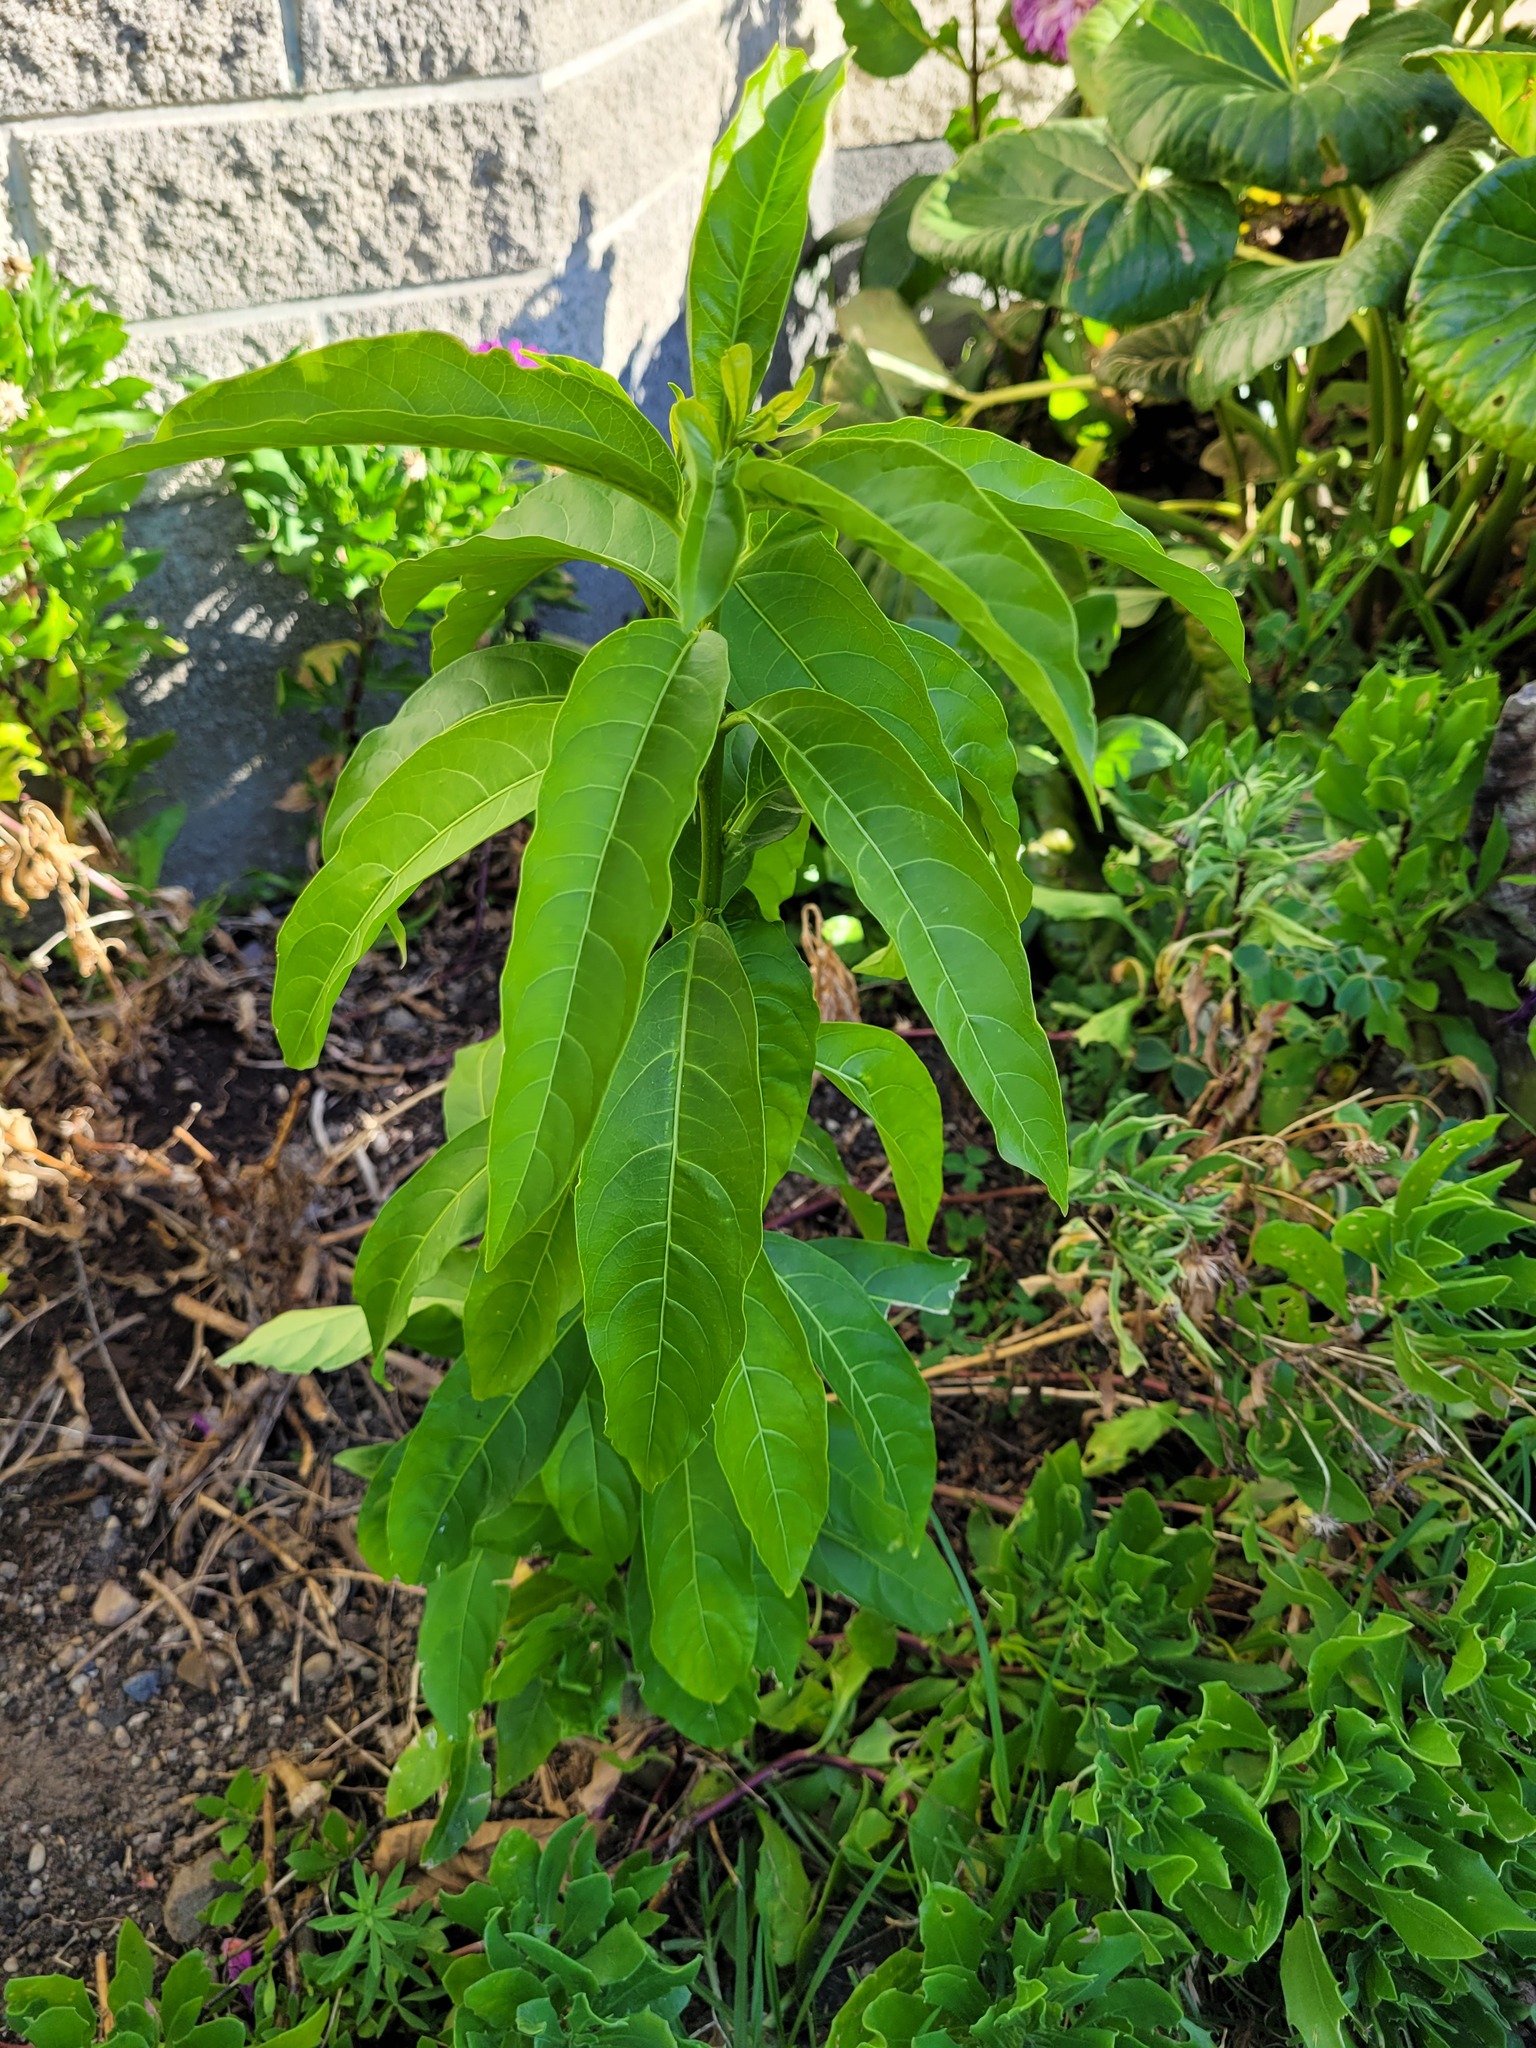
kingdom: Plantae
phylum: Tracheophyta
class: Magnoliopsida
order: Solanales
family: Solanaceae
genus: Cestrum
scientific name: Cestrum nocturnum
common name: Night jessamine
